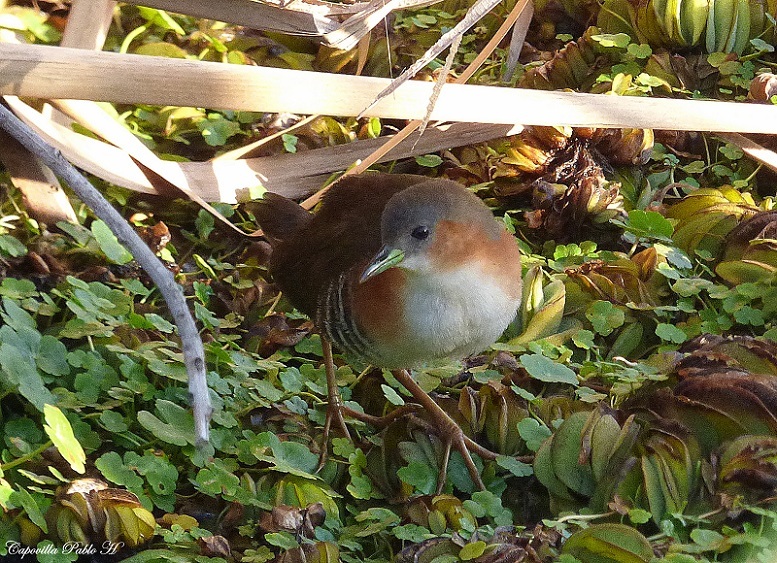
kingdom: Animalia
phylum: Chordata
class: Aves
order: Gruiformes
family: Rallidae
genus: Laterallus
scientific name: Laterallus melanophaius
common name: Rufous-sided crake
